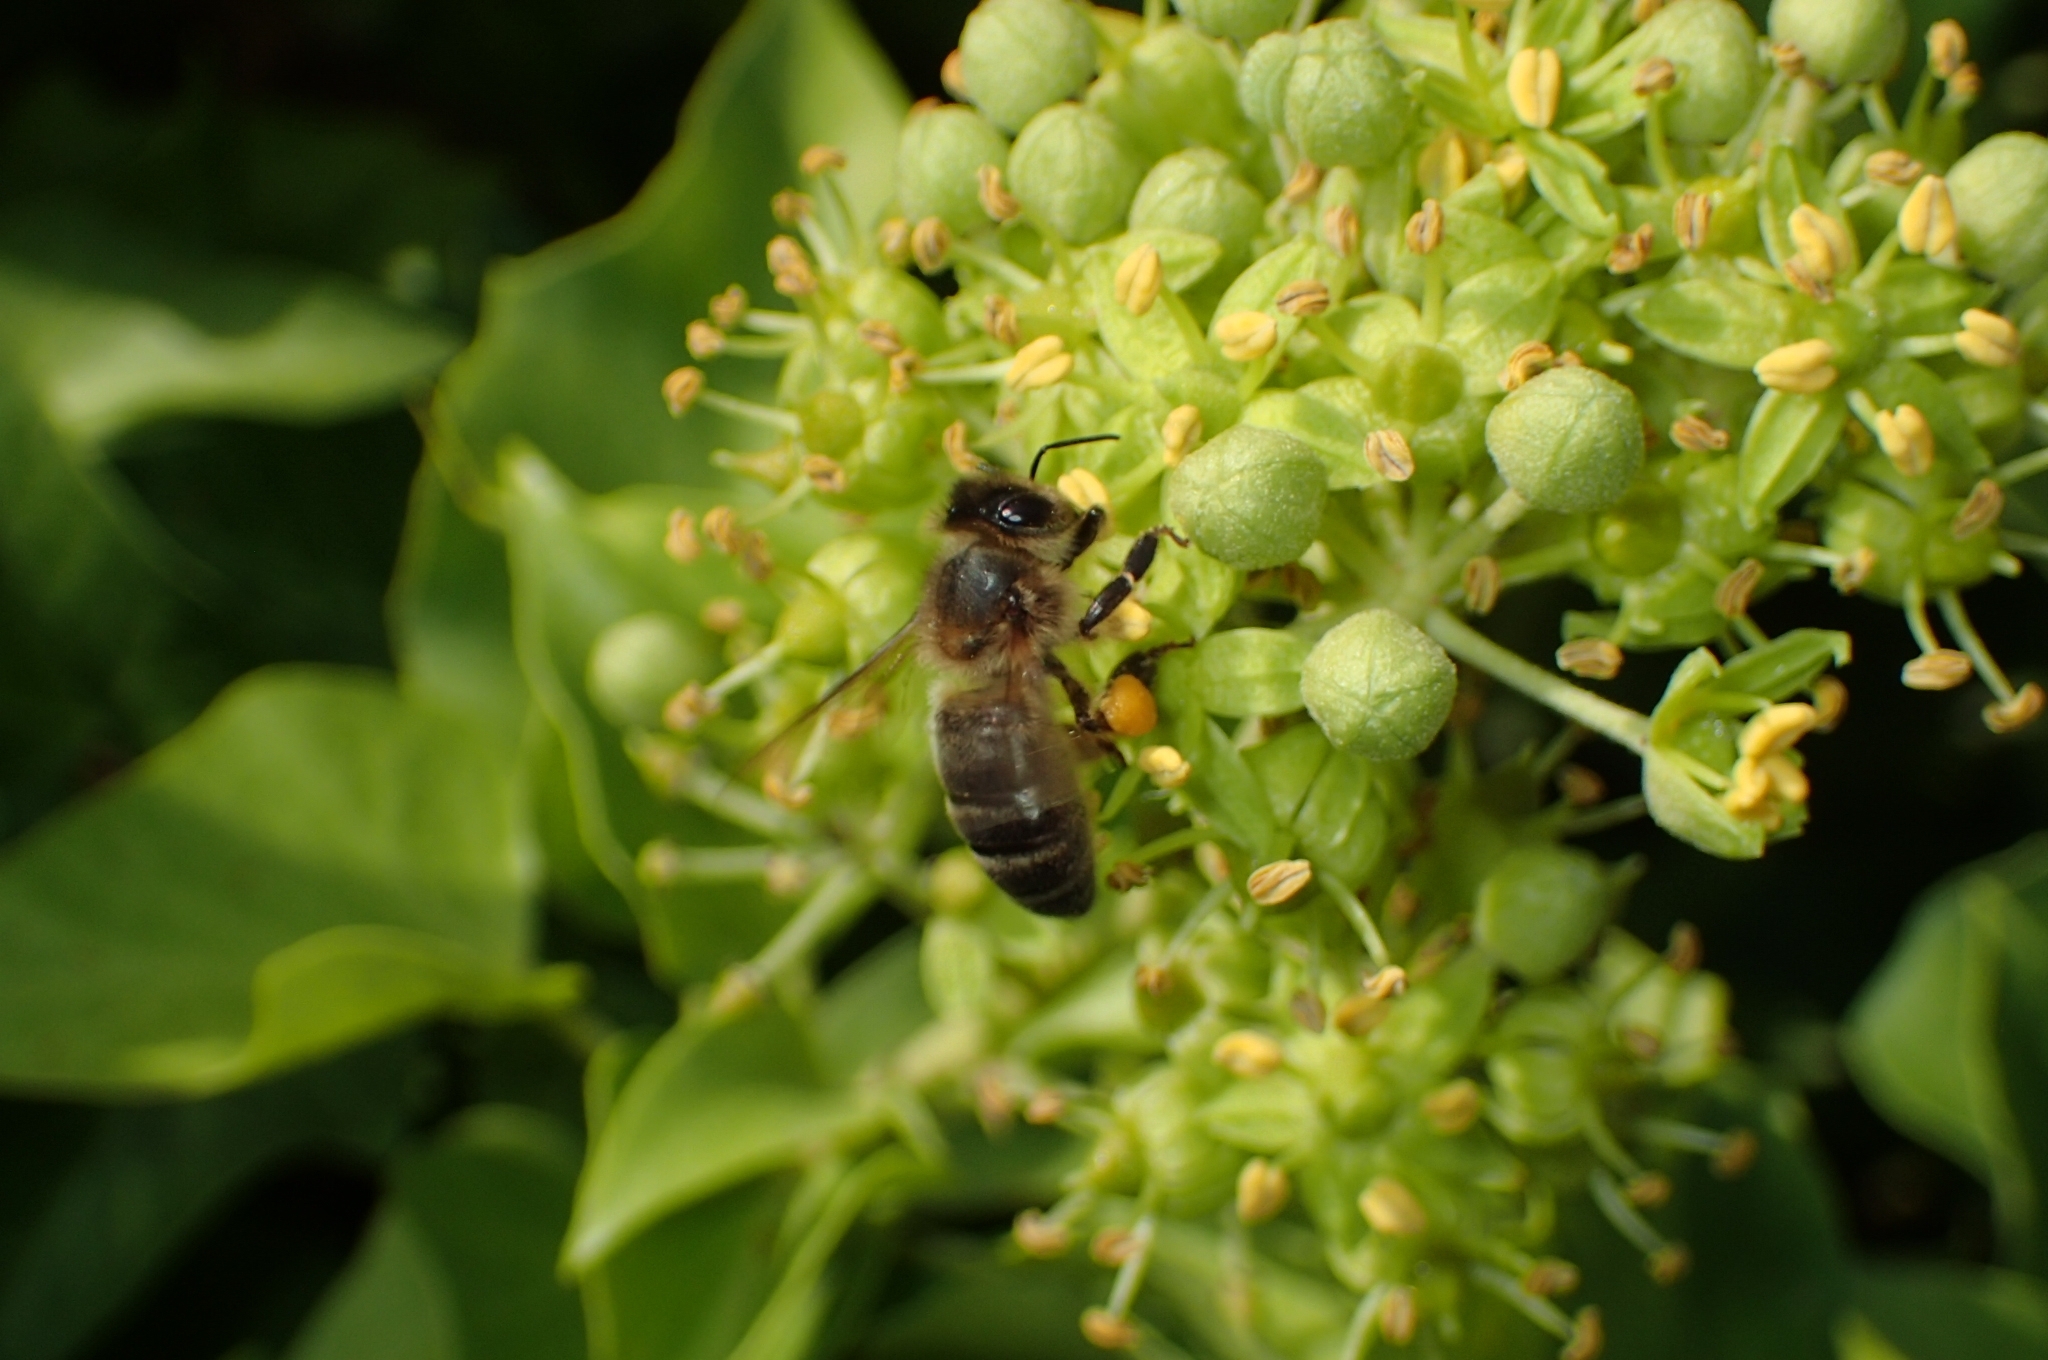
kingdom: Animalia
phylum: Arthropoda
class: Insecta
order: Hymenoptera
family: Apidae
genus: Apis
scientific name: Apis mellifera
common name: Honey bee
